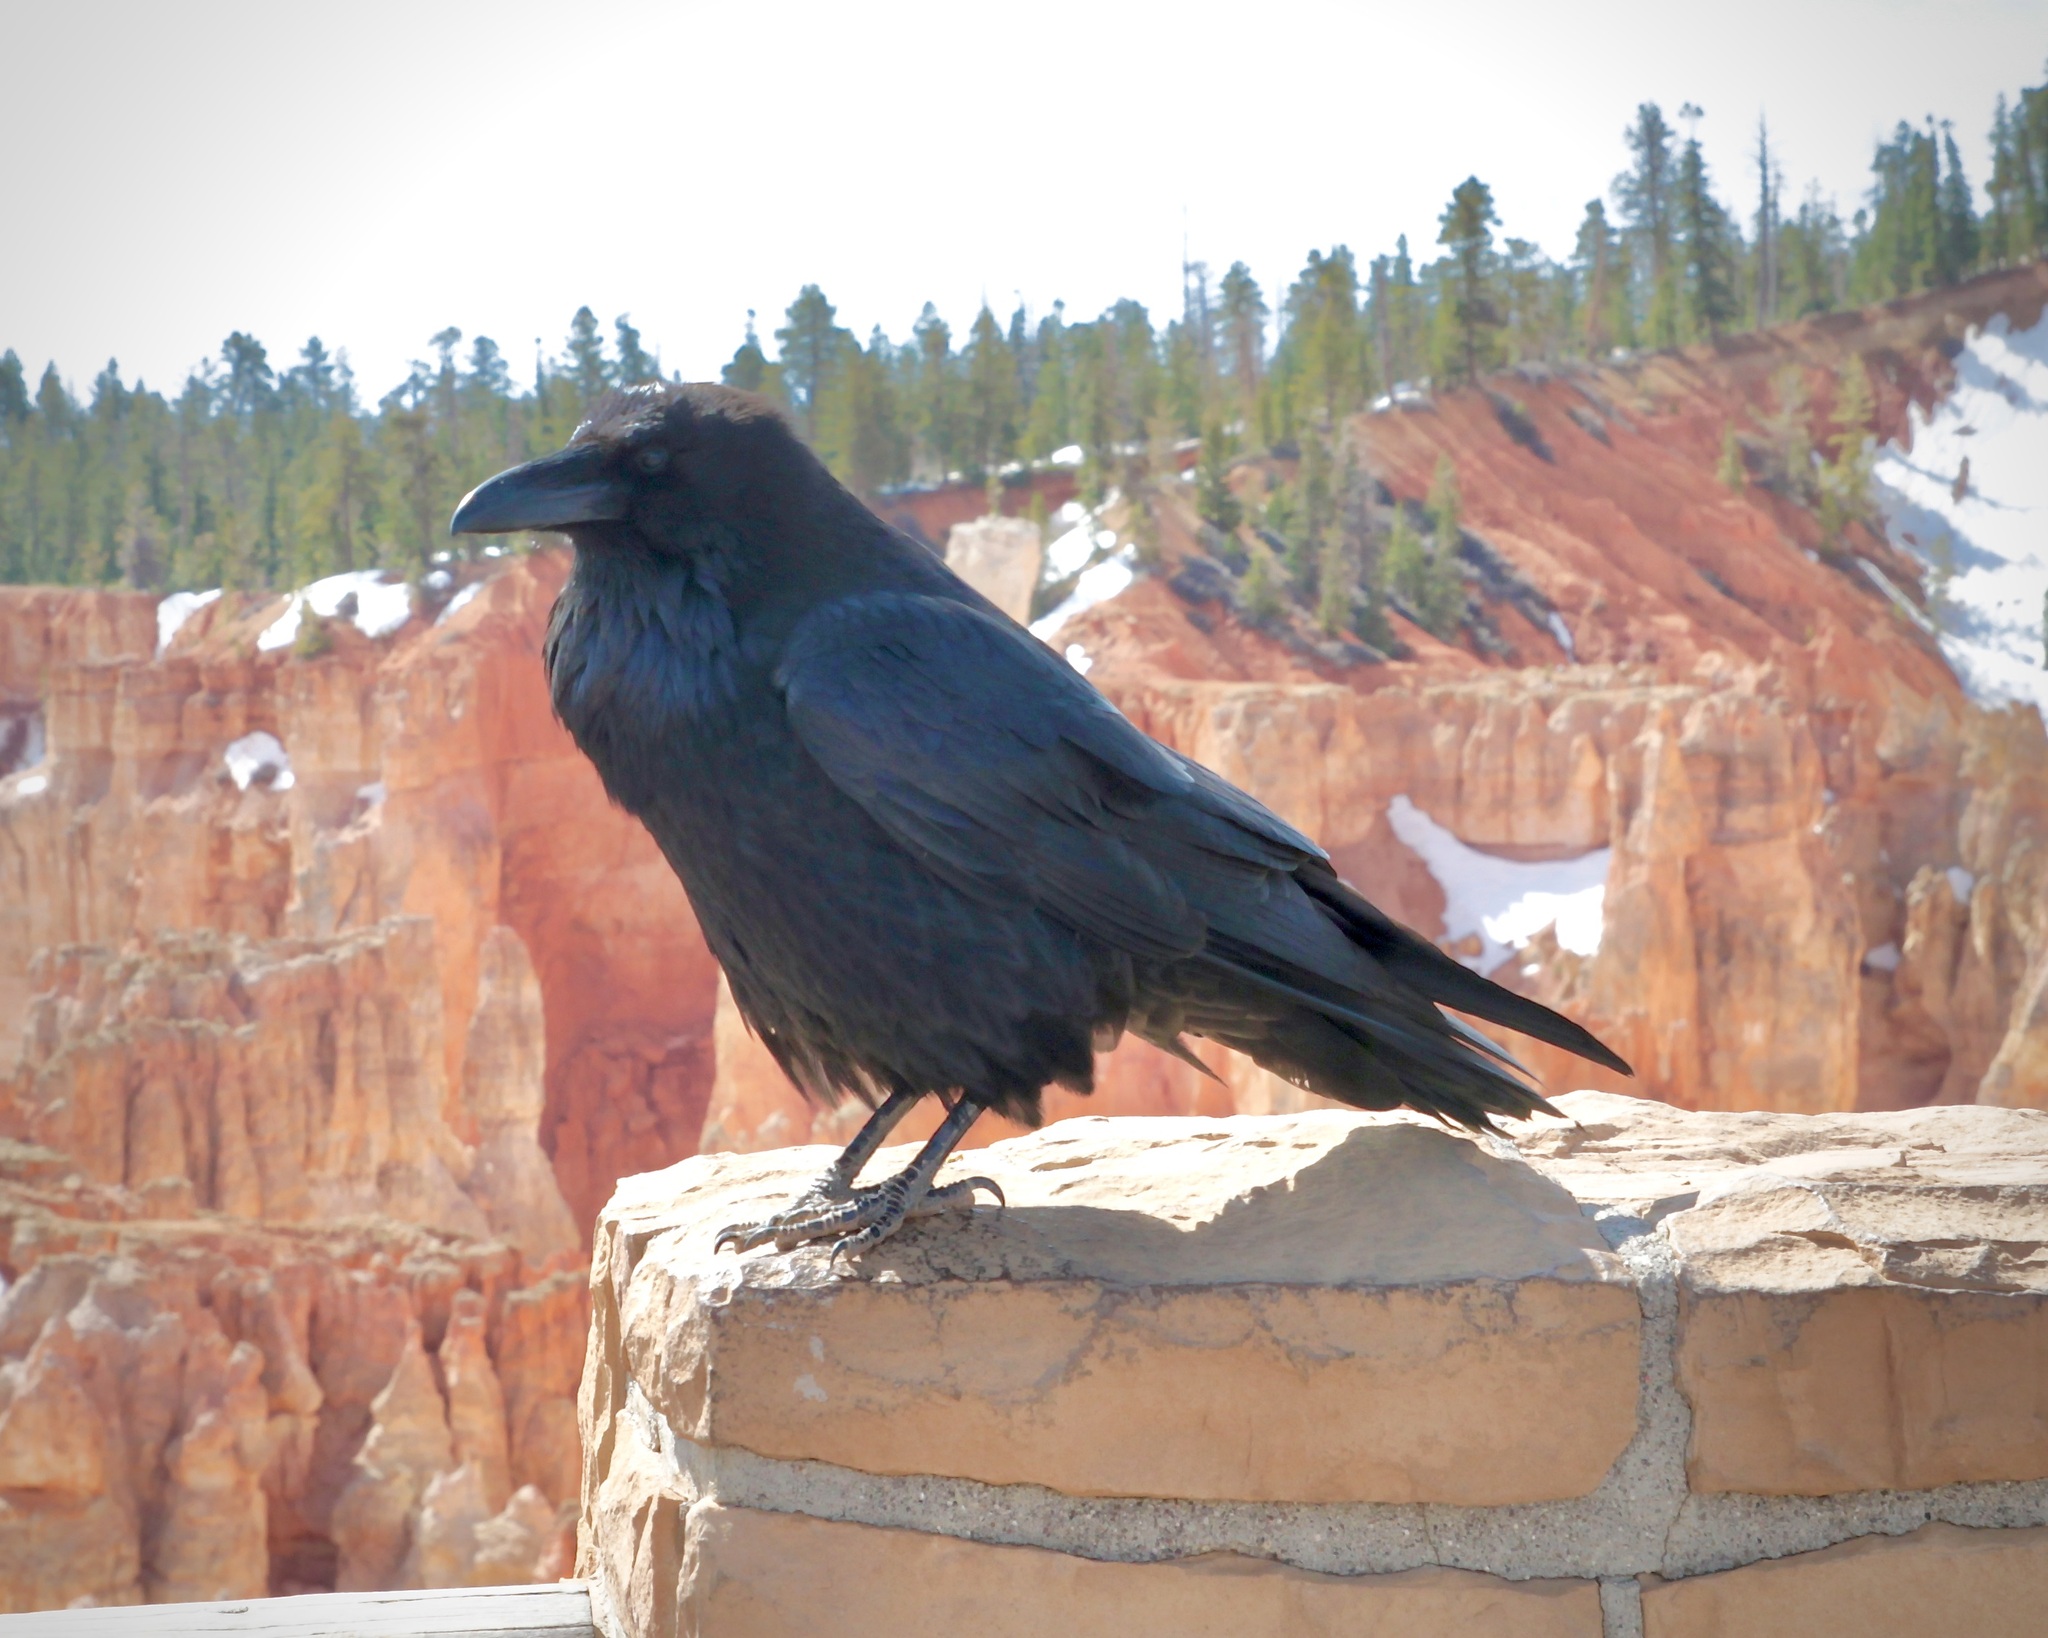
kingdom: Animalia
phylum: Chordata
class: Aves
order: Passeriformes
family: Corvidae
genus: Corvus
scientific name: Corvus corax
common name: Common raven
